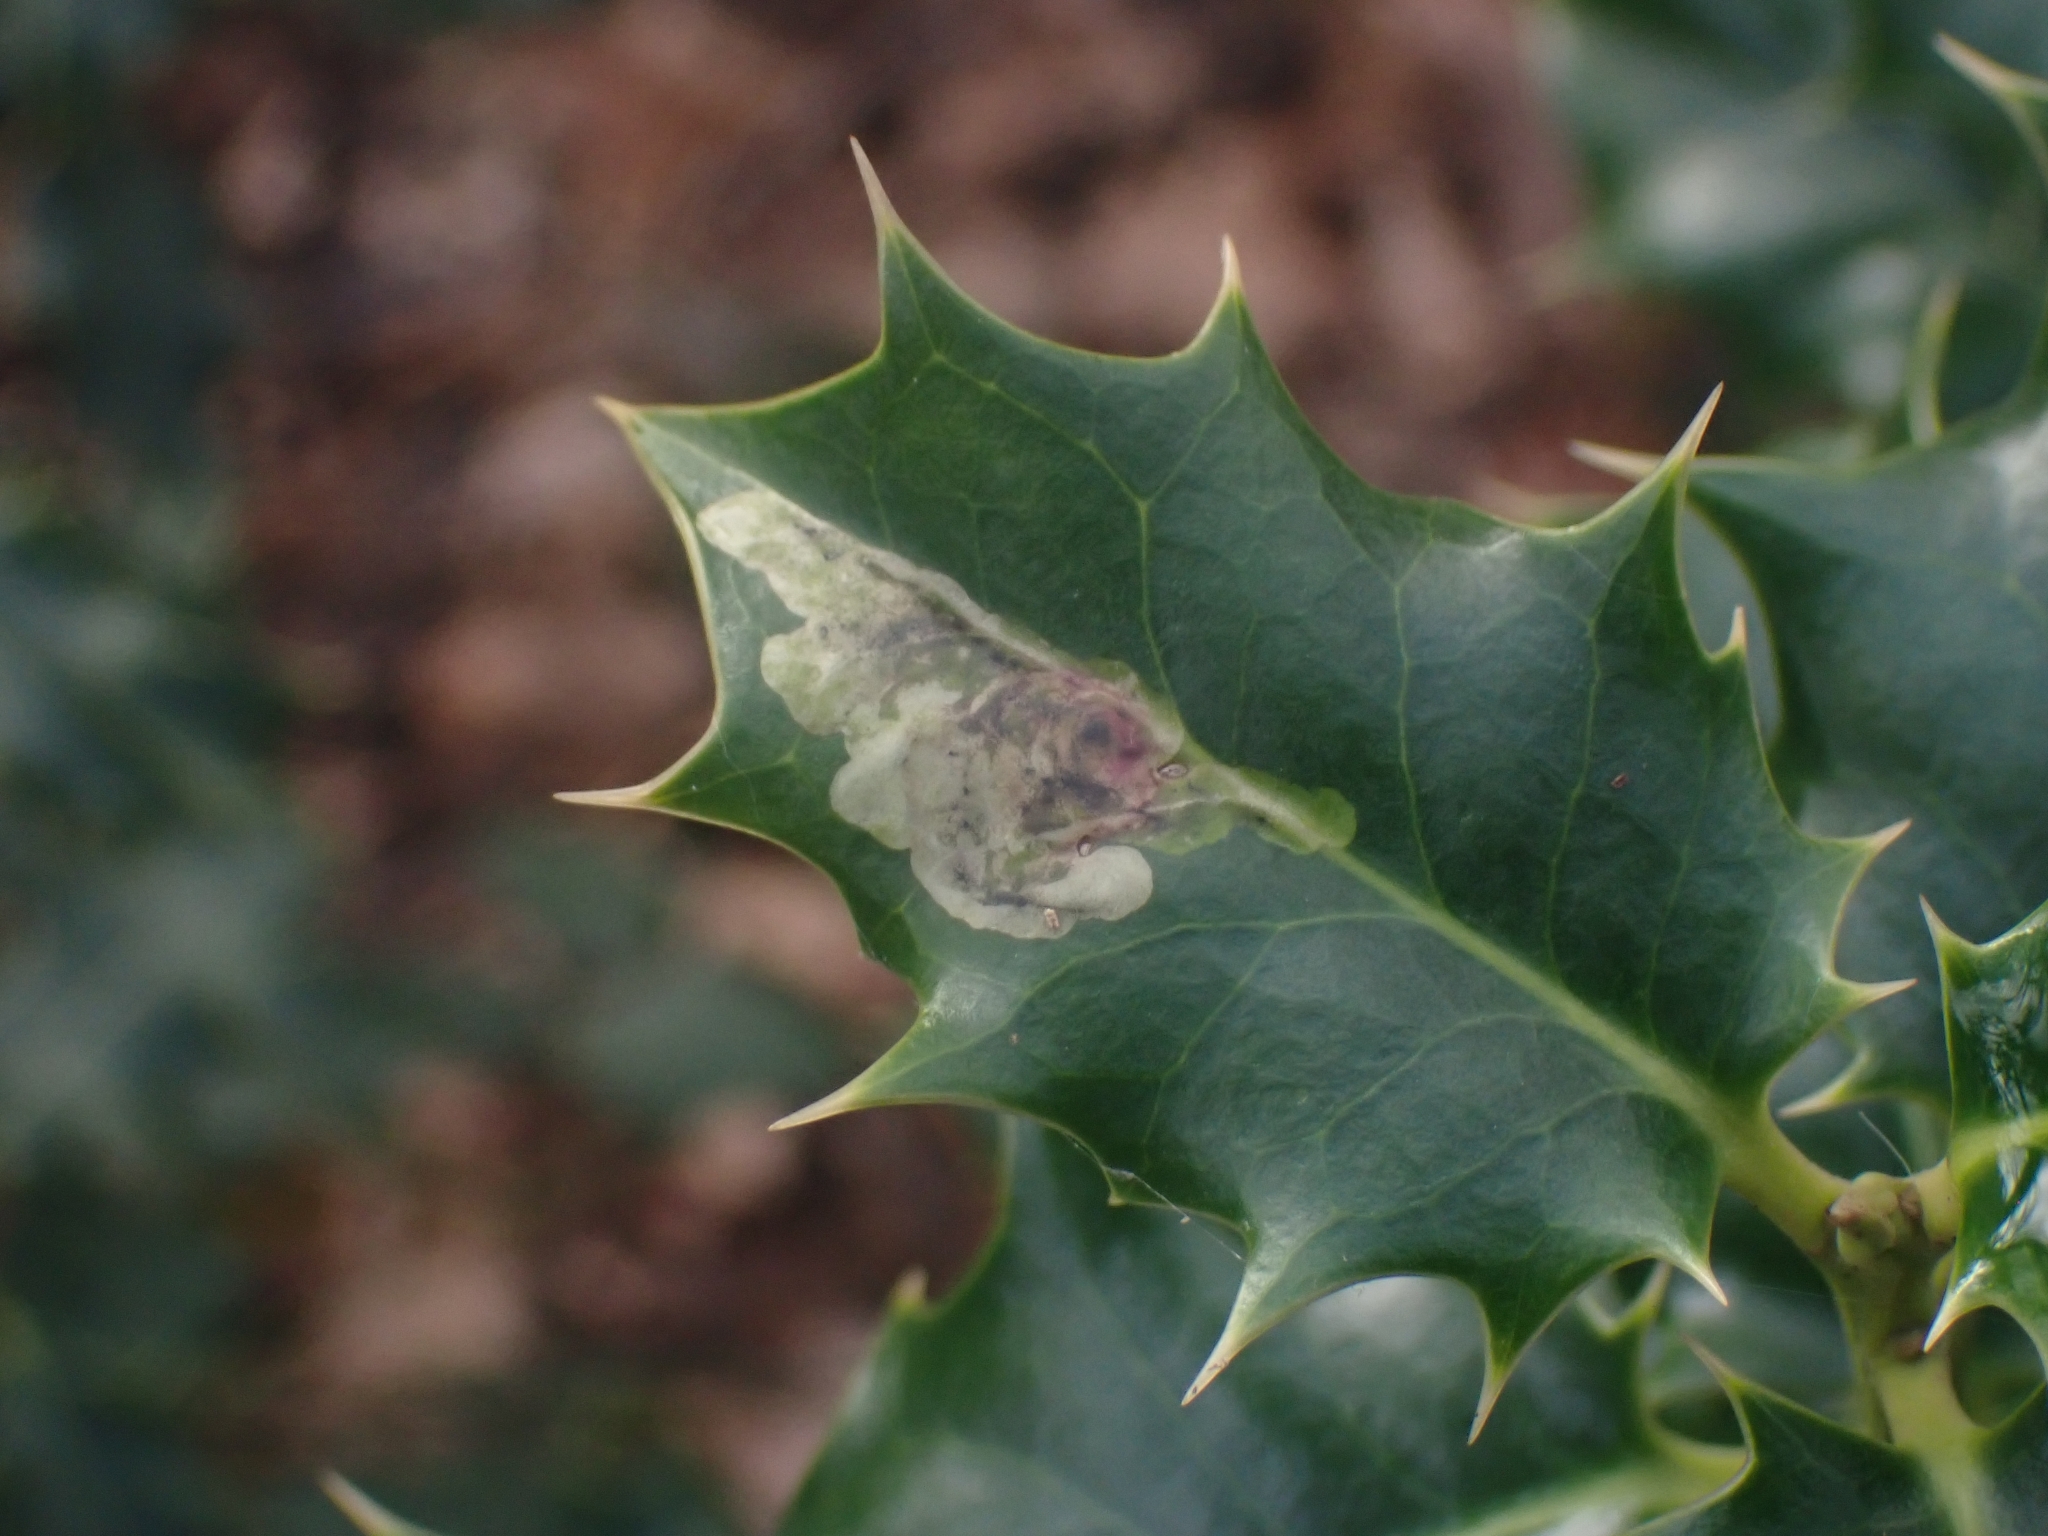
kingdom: Animalia
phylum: Arthropoda
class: Insecta
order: Diptera
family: Agromyzidae
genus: Phytomyza
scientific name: Phytomyza ilicis
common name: Holly leafminer
